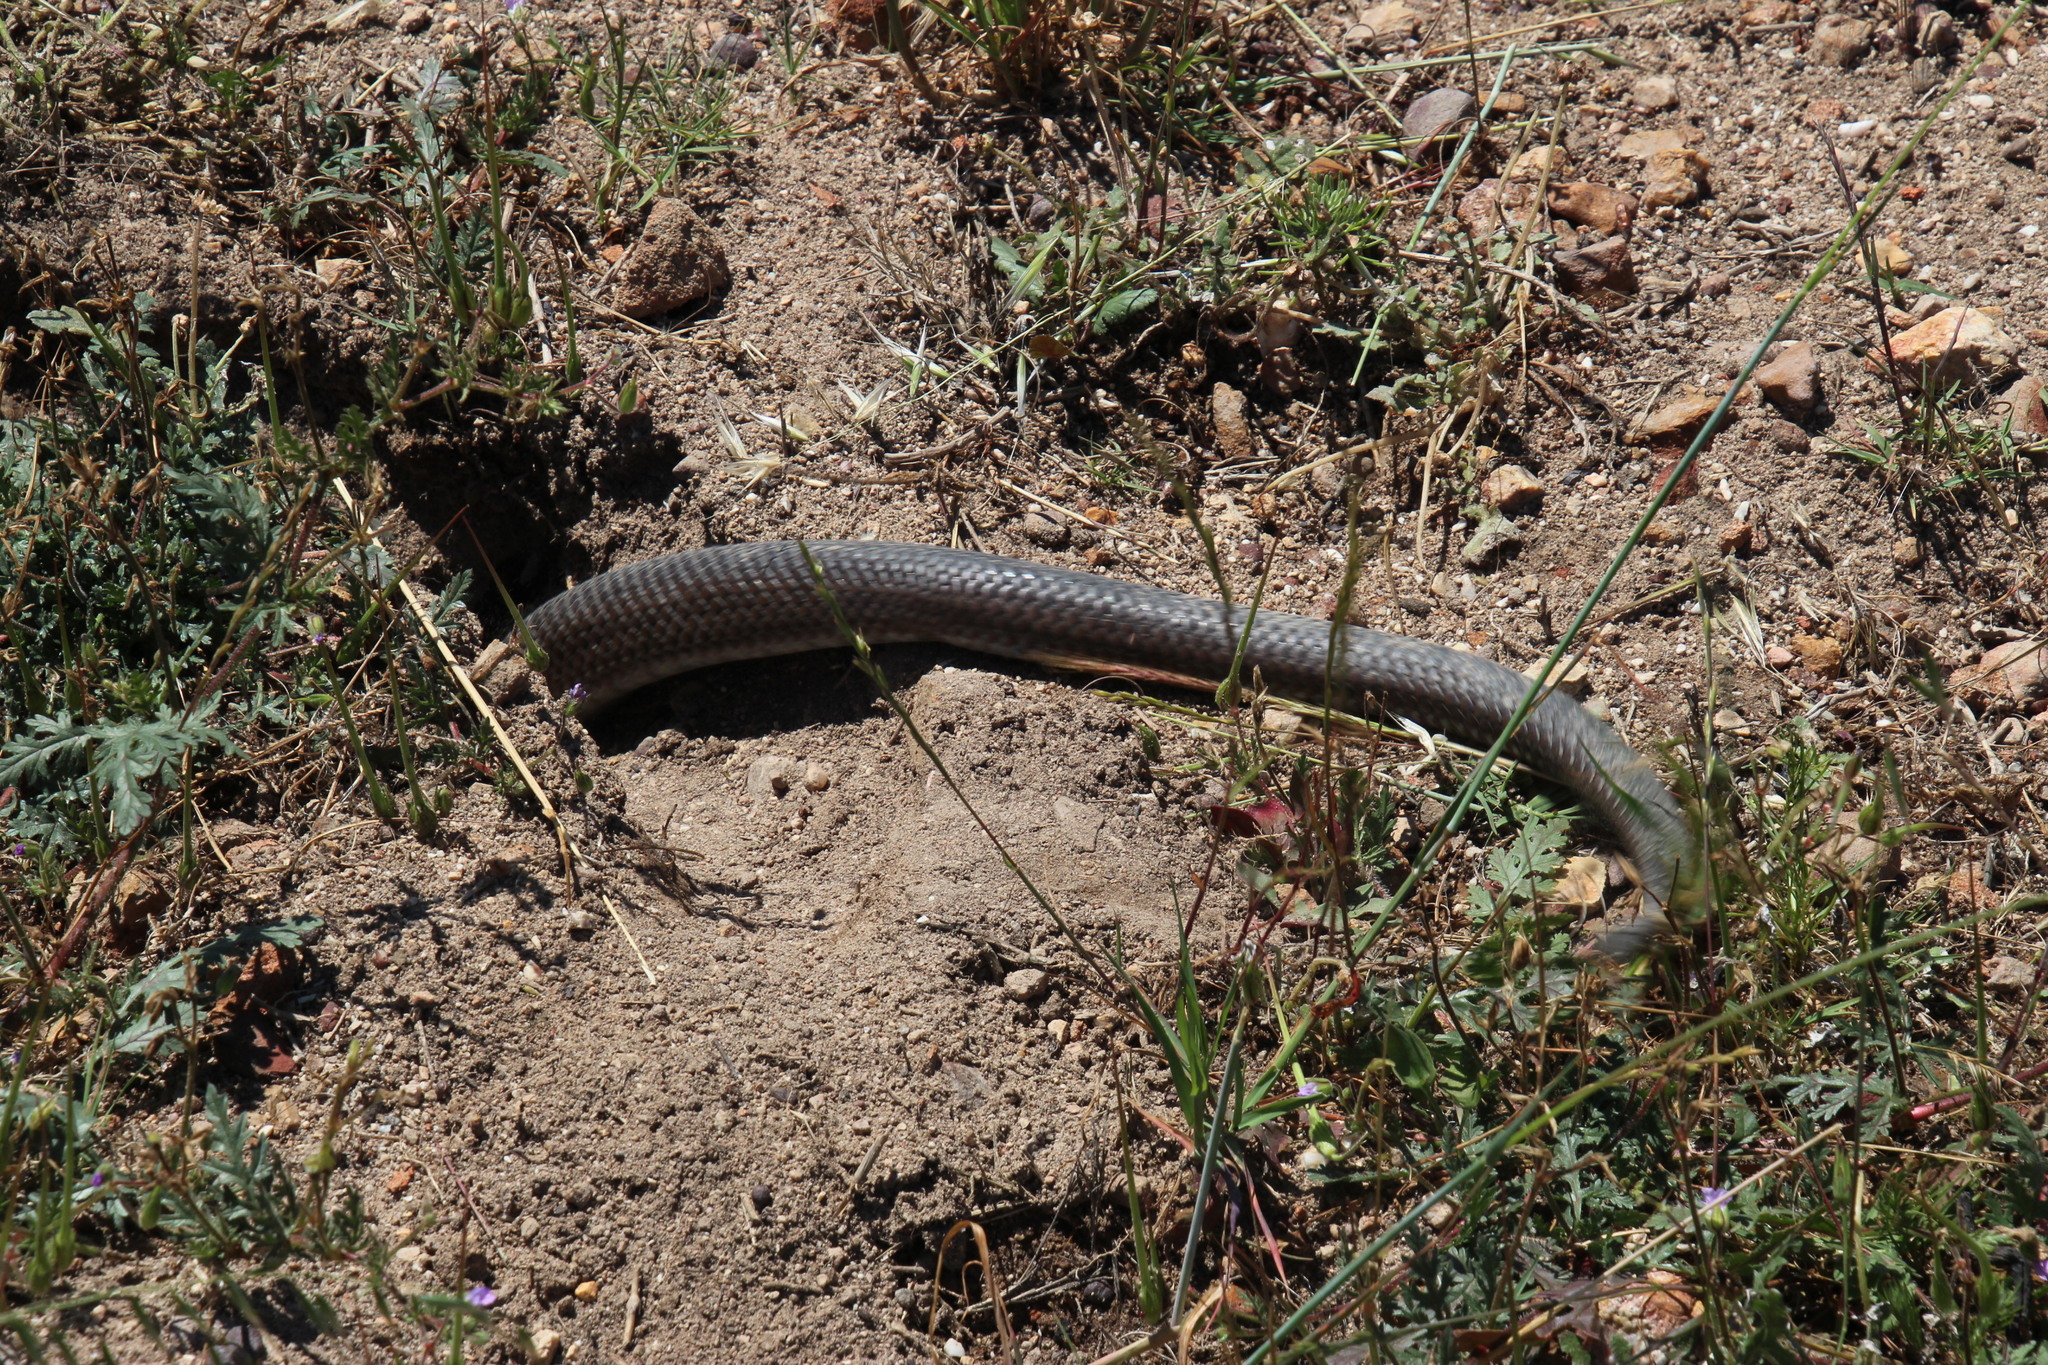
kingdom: Animalia
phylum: Chordata
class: Squamata
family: Pseudaspididae
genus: Pseudaspis
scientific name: Pseudaspis cana
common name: Mole snake
